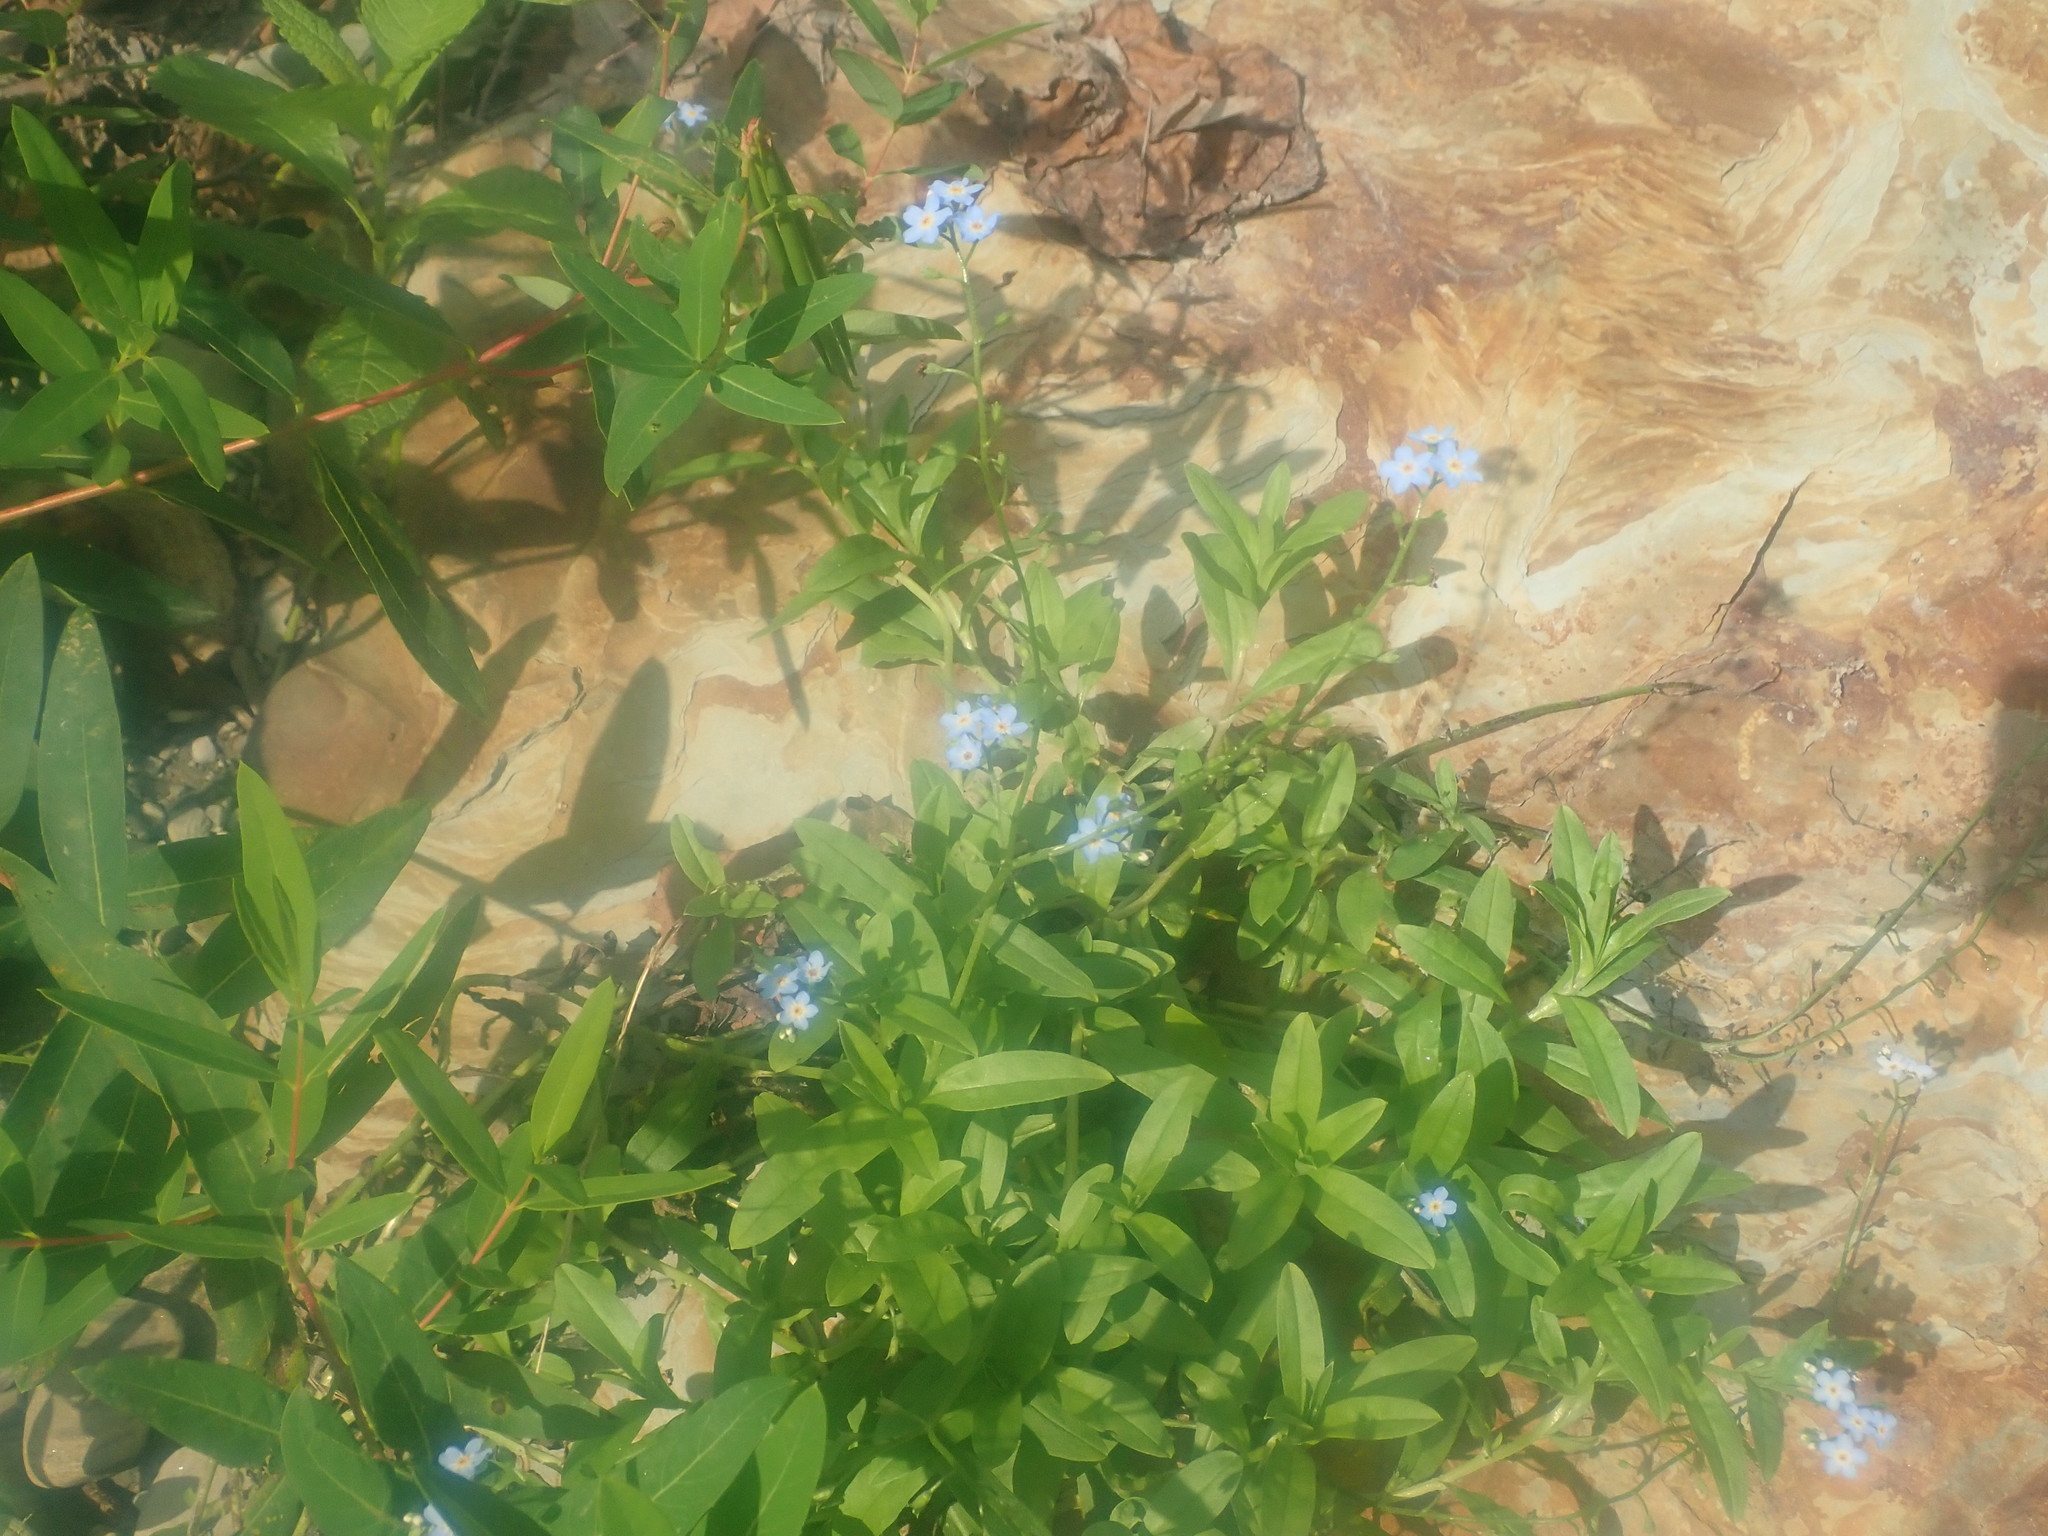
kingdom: Plantae
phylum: Tracheophyta
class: Magnoliopsida
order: Boraginales
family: Boraginaceae
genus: Myosotis
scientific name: Myosotis scorpioides
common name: Water forget-me-not
